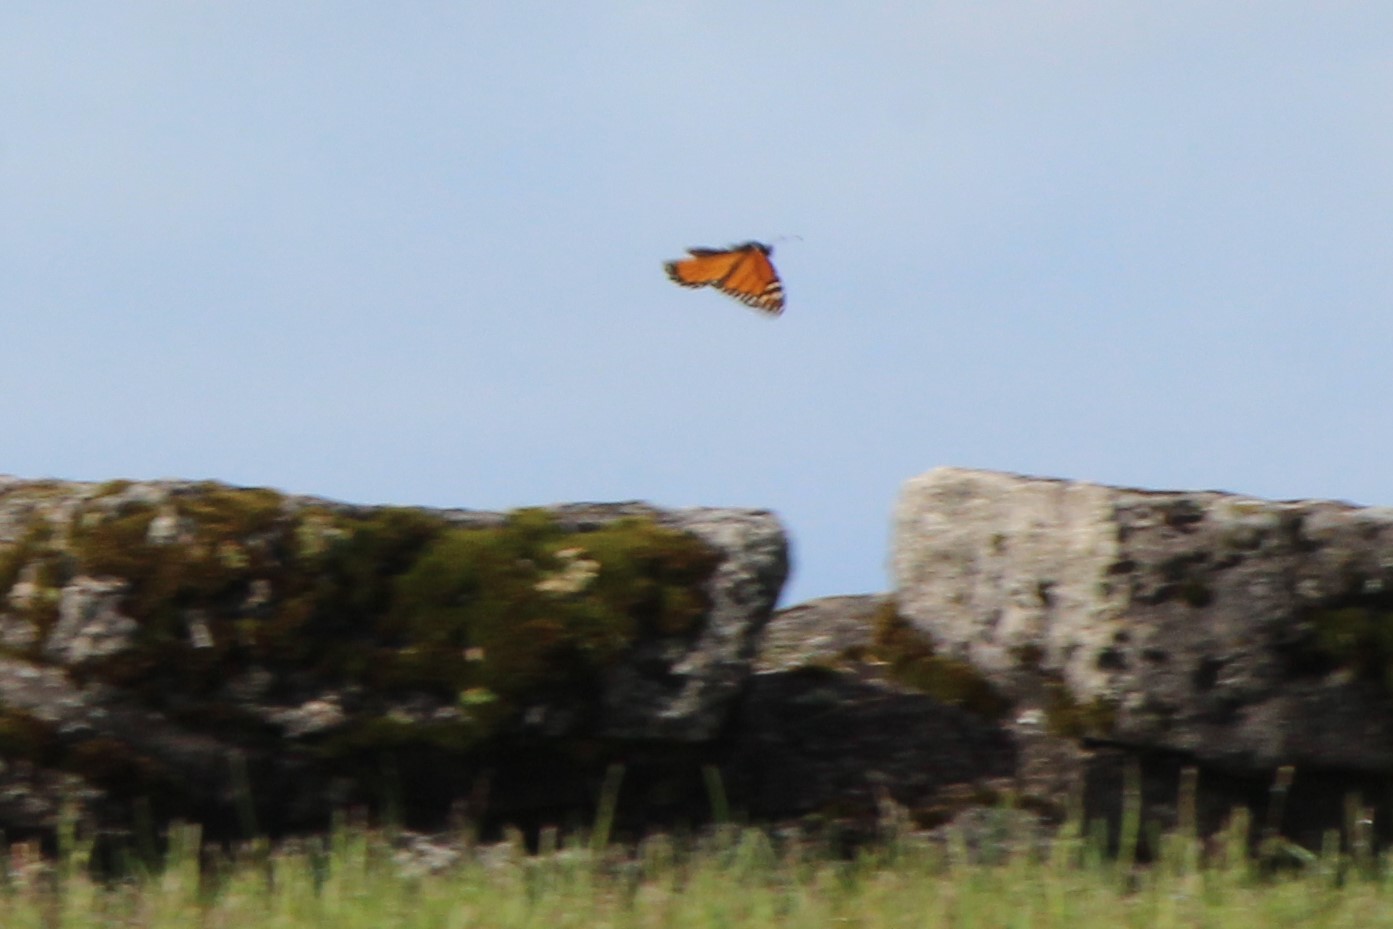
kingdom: Animalia
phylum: Arthropoda
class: Insecta
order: Lepidoptera
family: Nymphalidae
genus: Danaus
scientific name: Danaus plexippus
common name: Monarch
